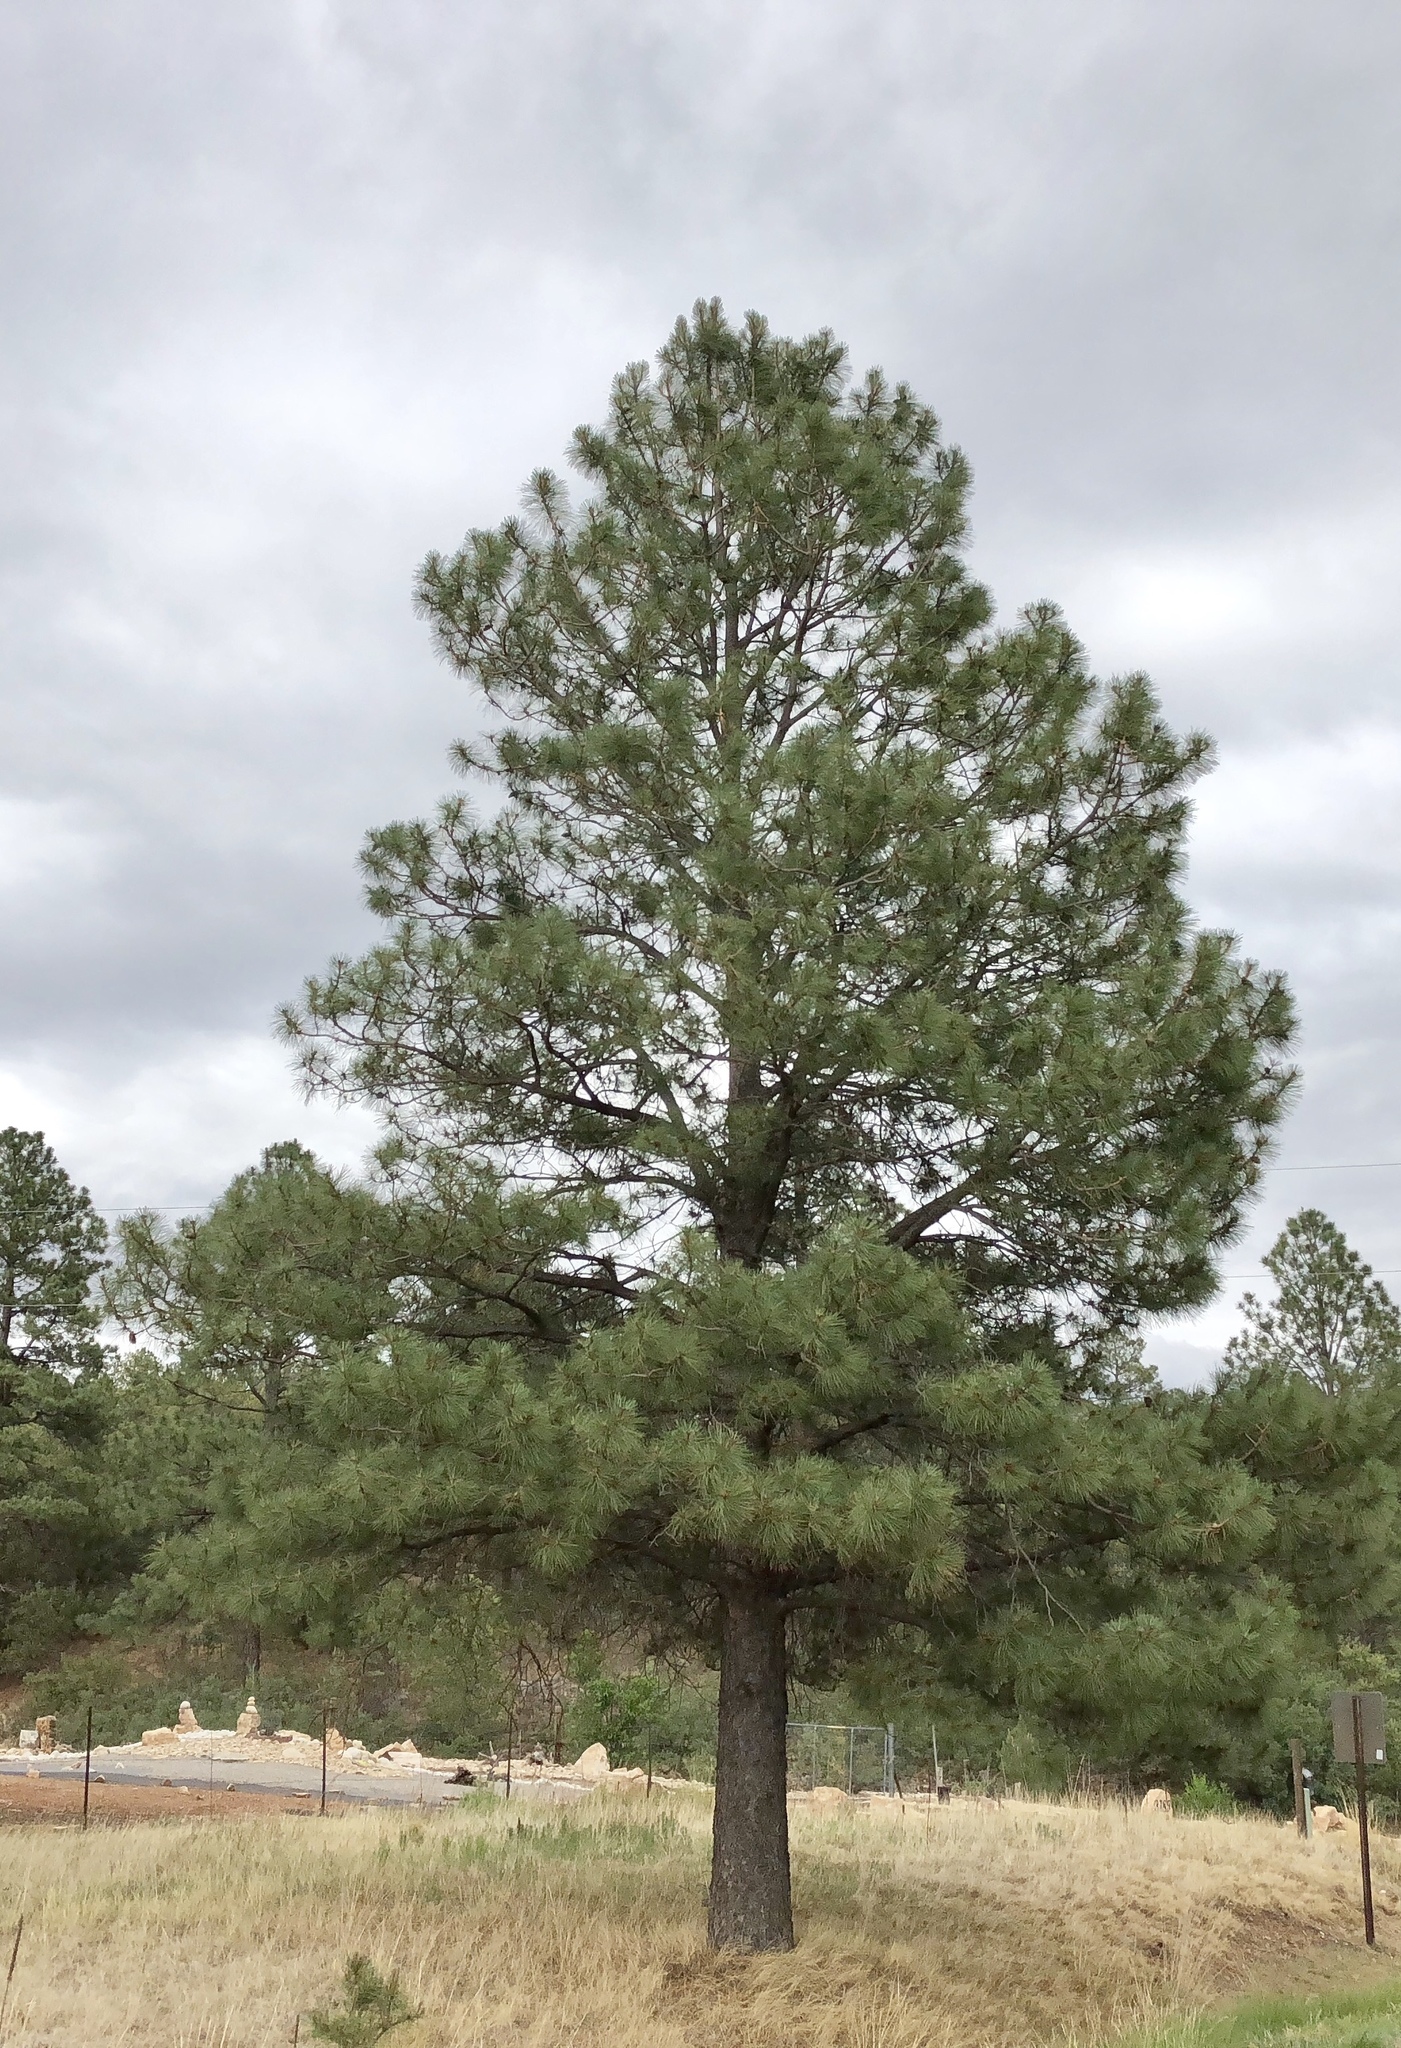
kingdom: Plantae
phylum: Tracheophyta
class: Pinopsida
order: Pinales
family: Pinaceae
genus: Pinus
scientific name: Pinus ponderosa
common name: Western yellow-pine
